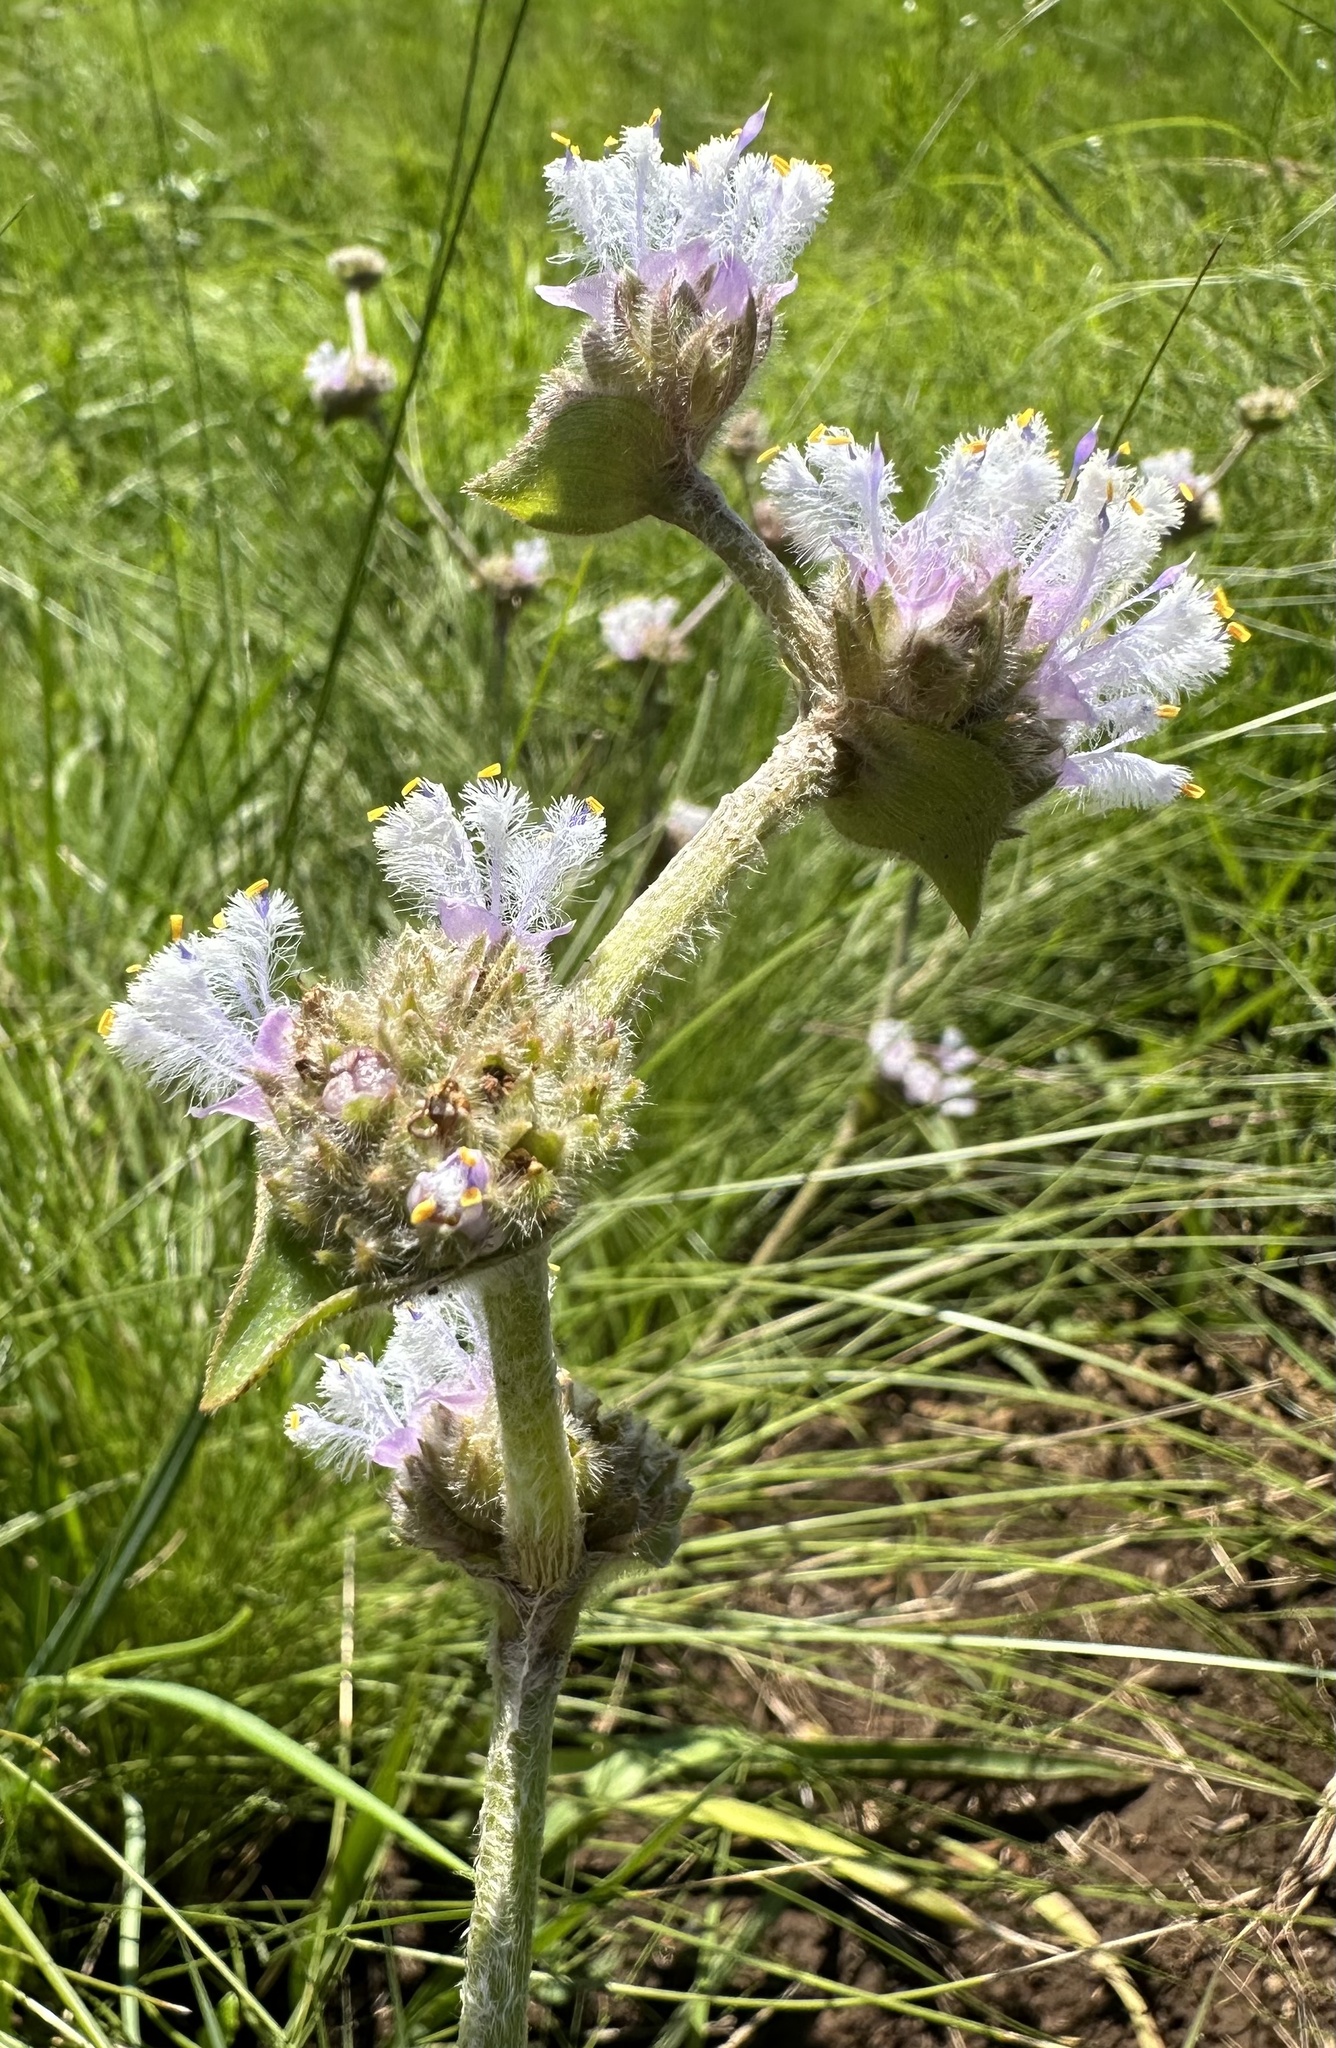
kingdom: Plantae
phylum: Tracheophyta
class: Liliopsida
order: Commelinales
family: Commelinaceae
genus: Cyanotis
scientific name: Cyanotis speciosa
